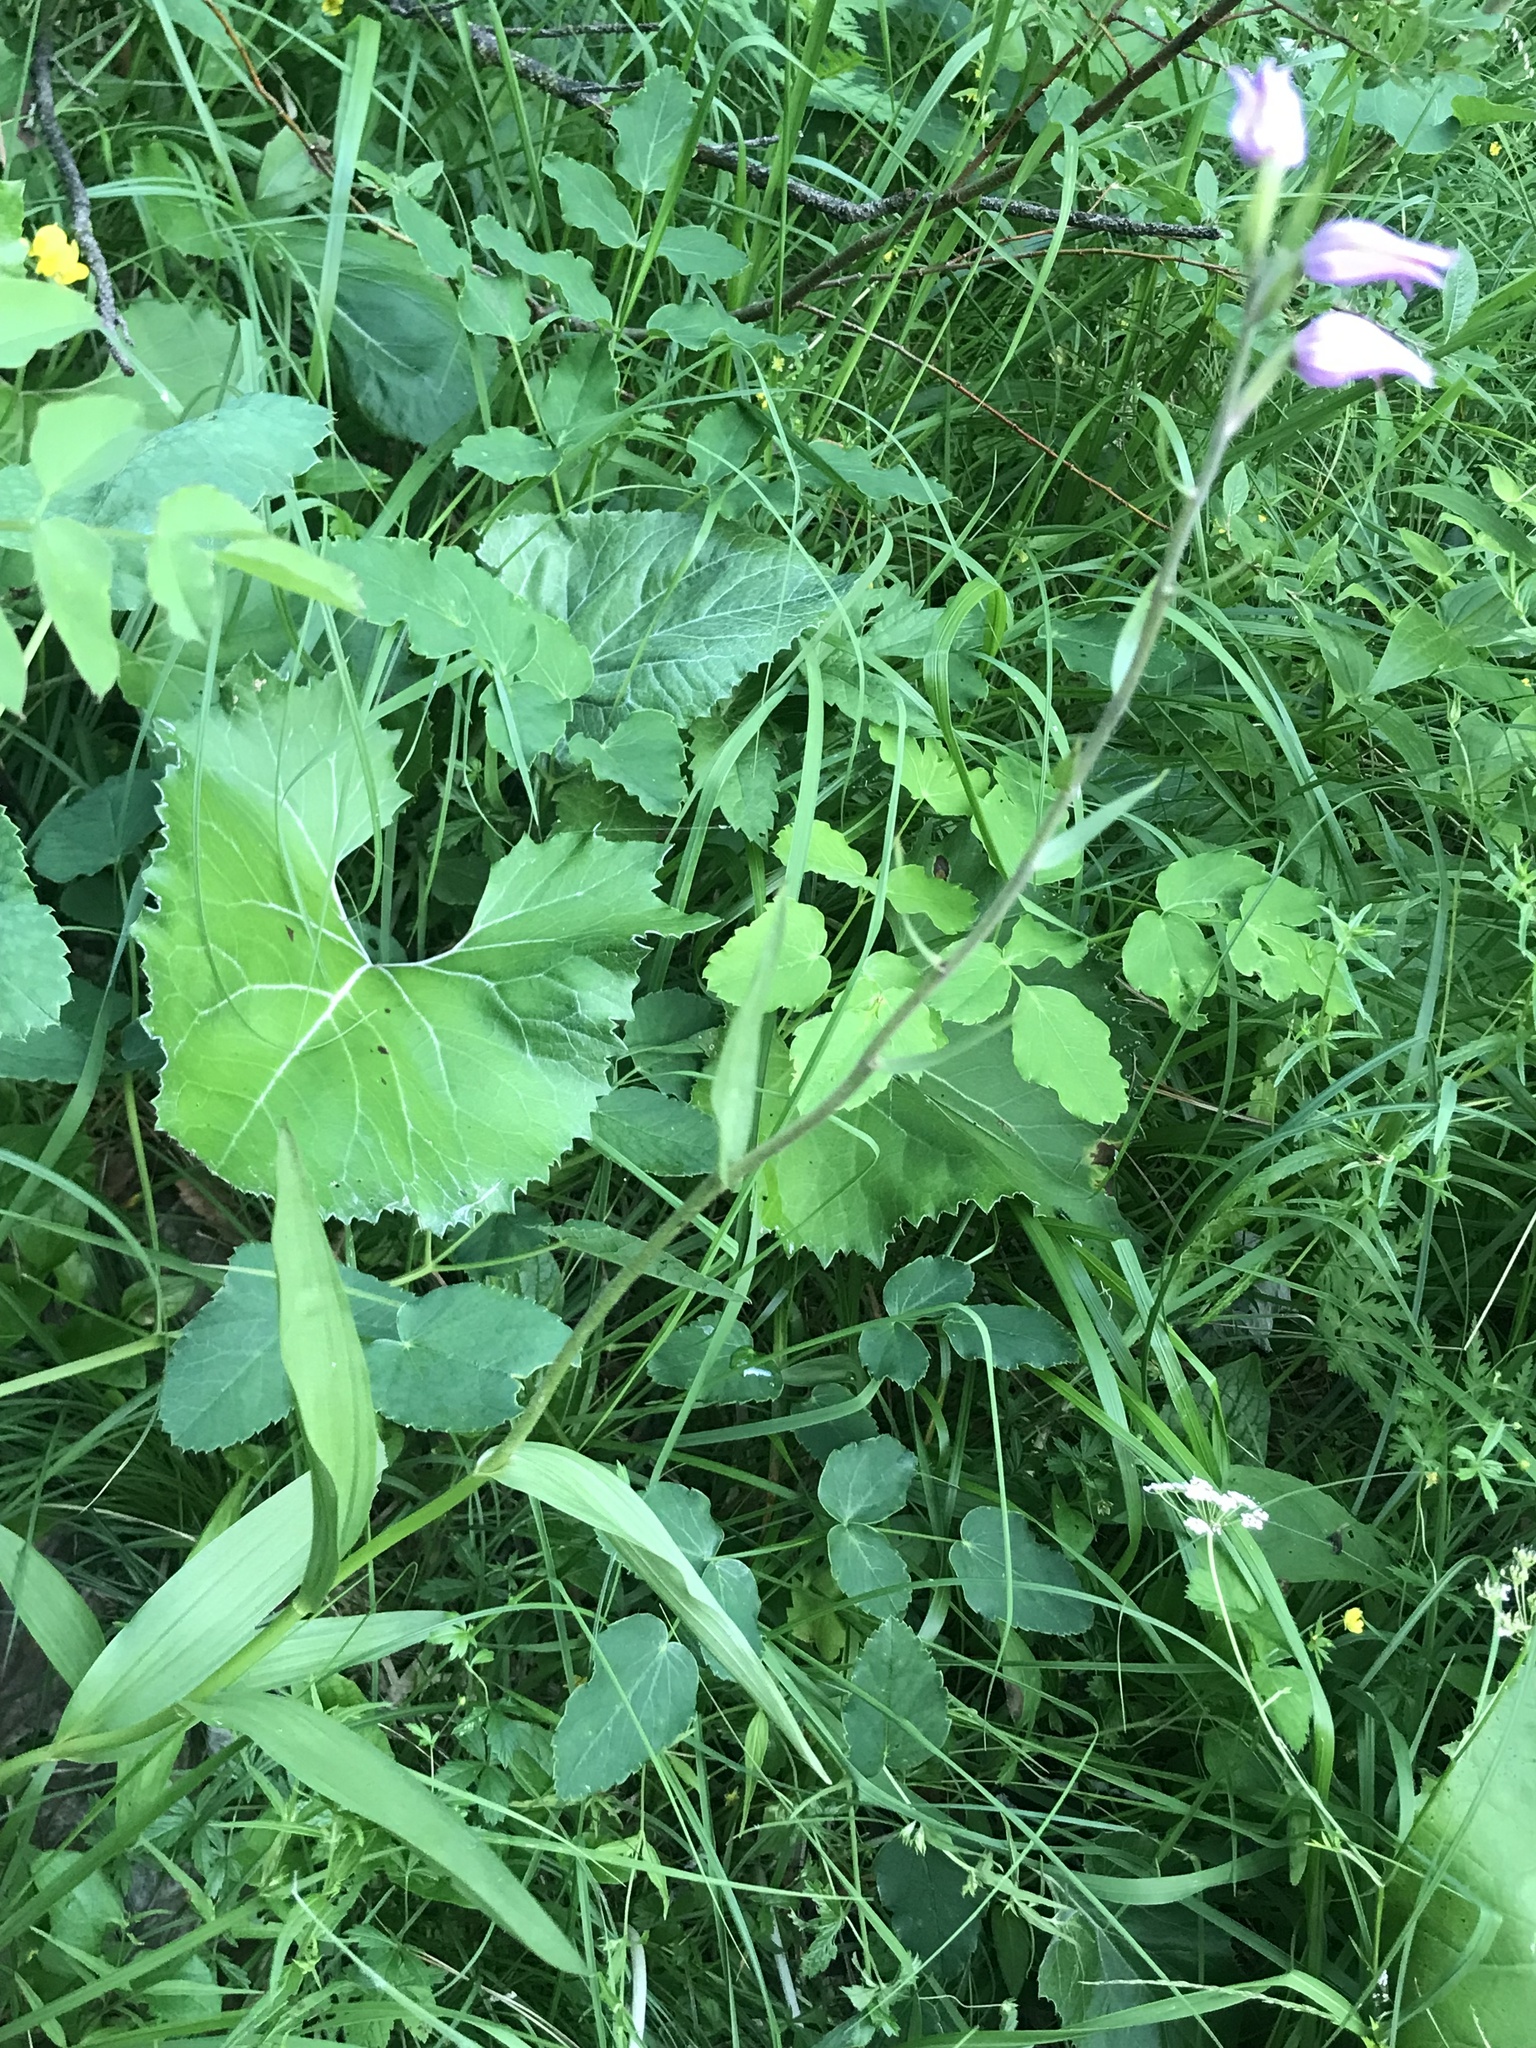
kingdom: Plantae
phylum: Tracheophyta
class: Liliopsida
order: Asparagales
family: Orchidaceae
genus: Cephalanthera
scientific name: Cephalanthera rubra
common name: Red helleborine
